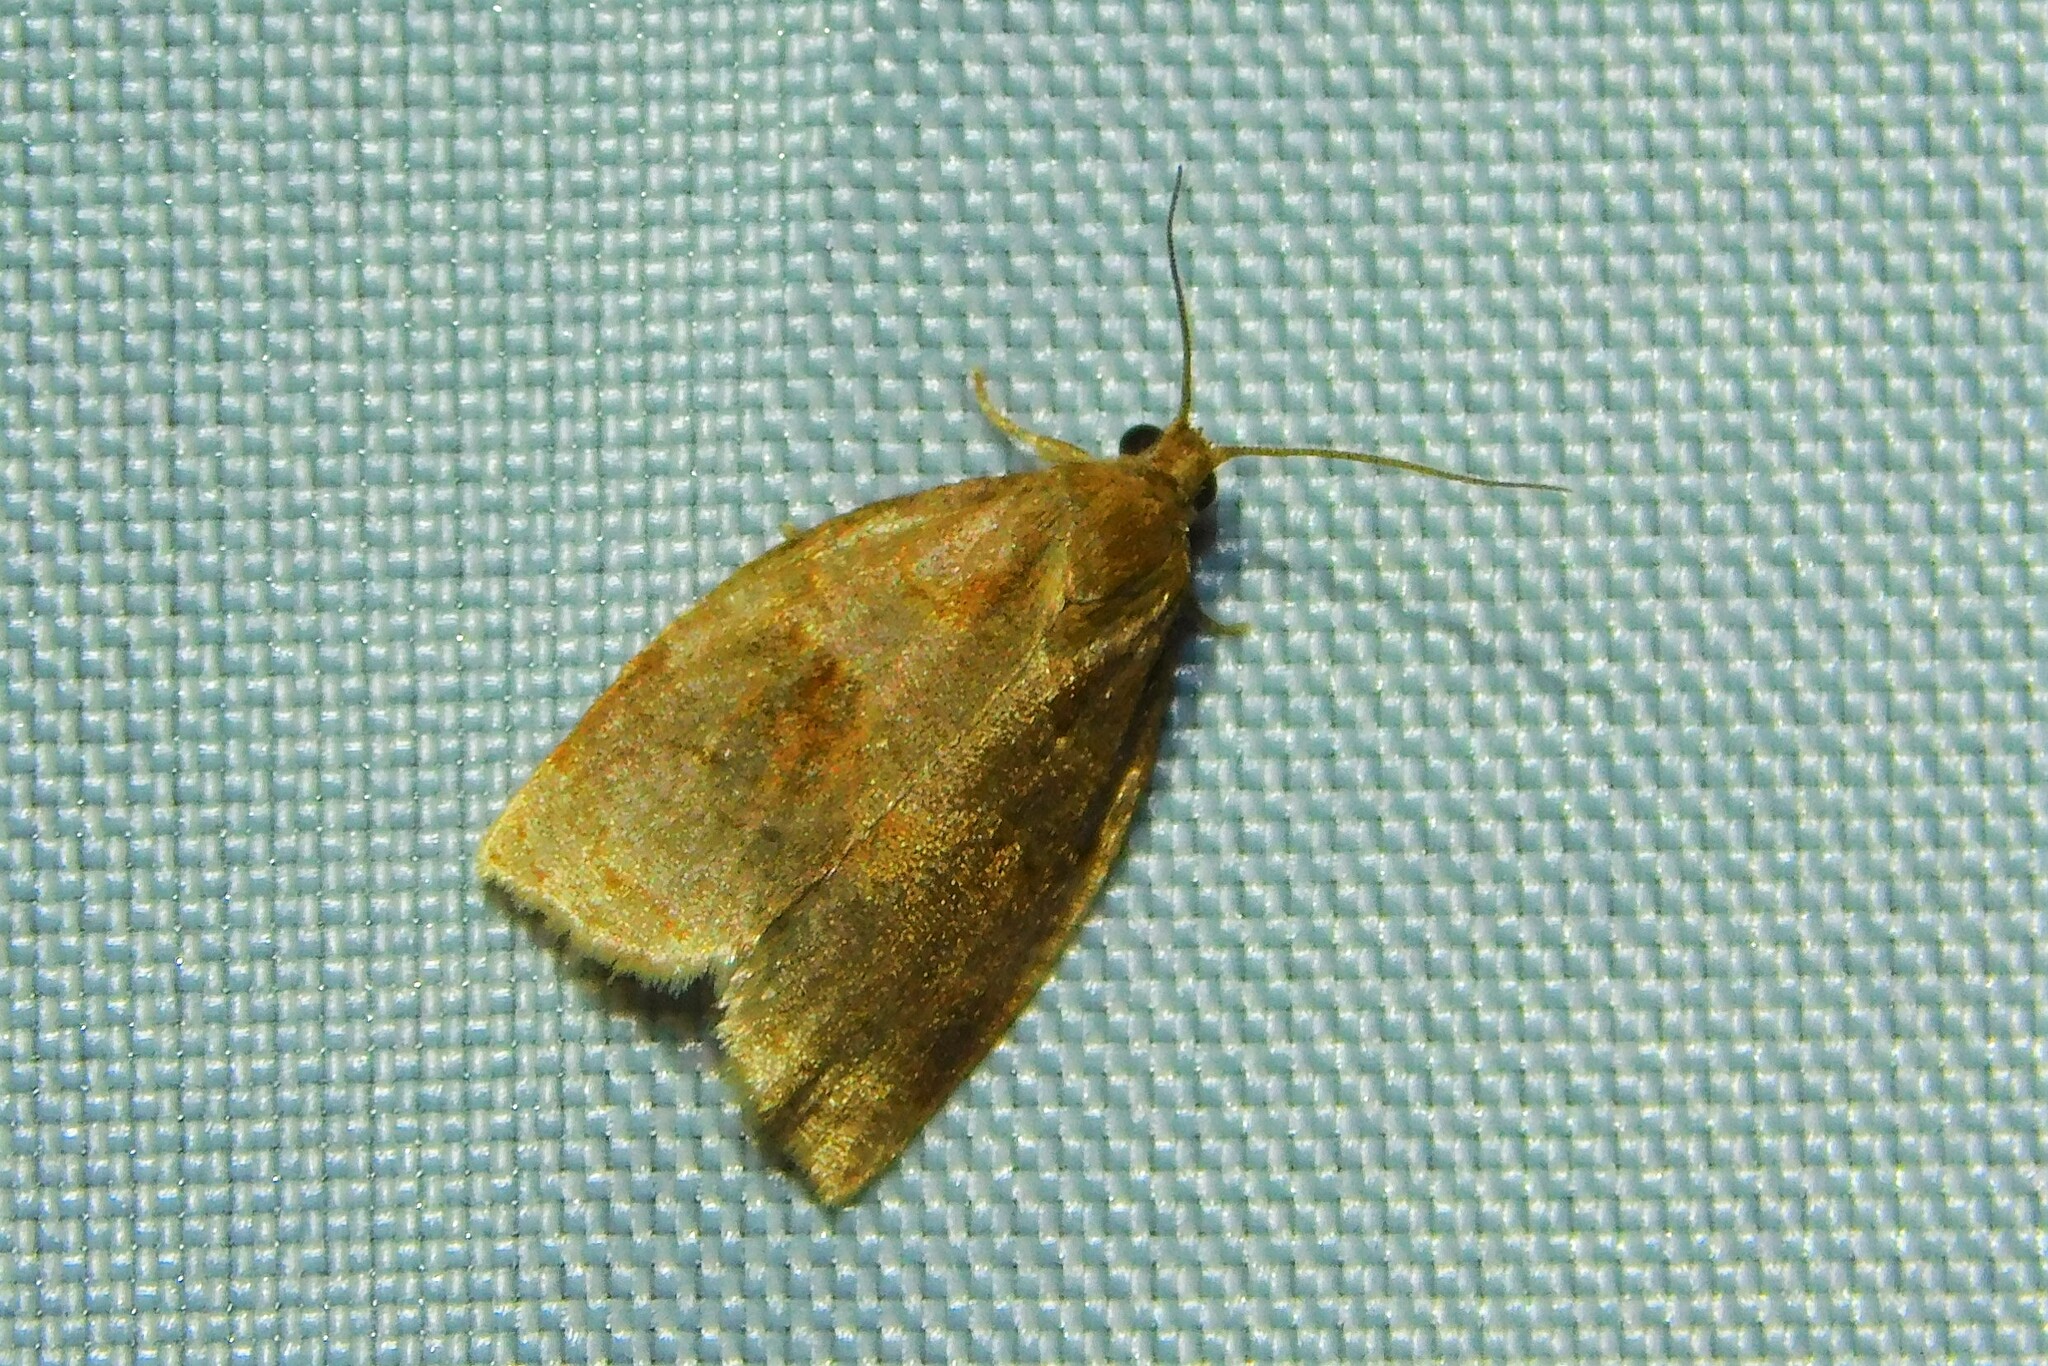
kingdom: Animalia
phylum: Arthropoda
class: Insecta
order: Lepidoptera
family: Tortricidae
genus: Archips
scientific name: Archips rosana
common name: Rose tortrix
